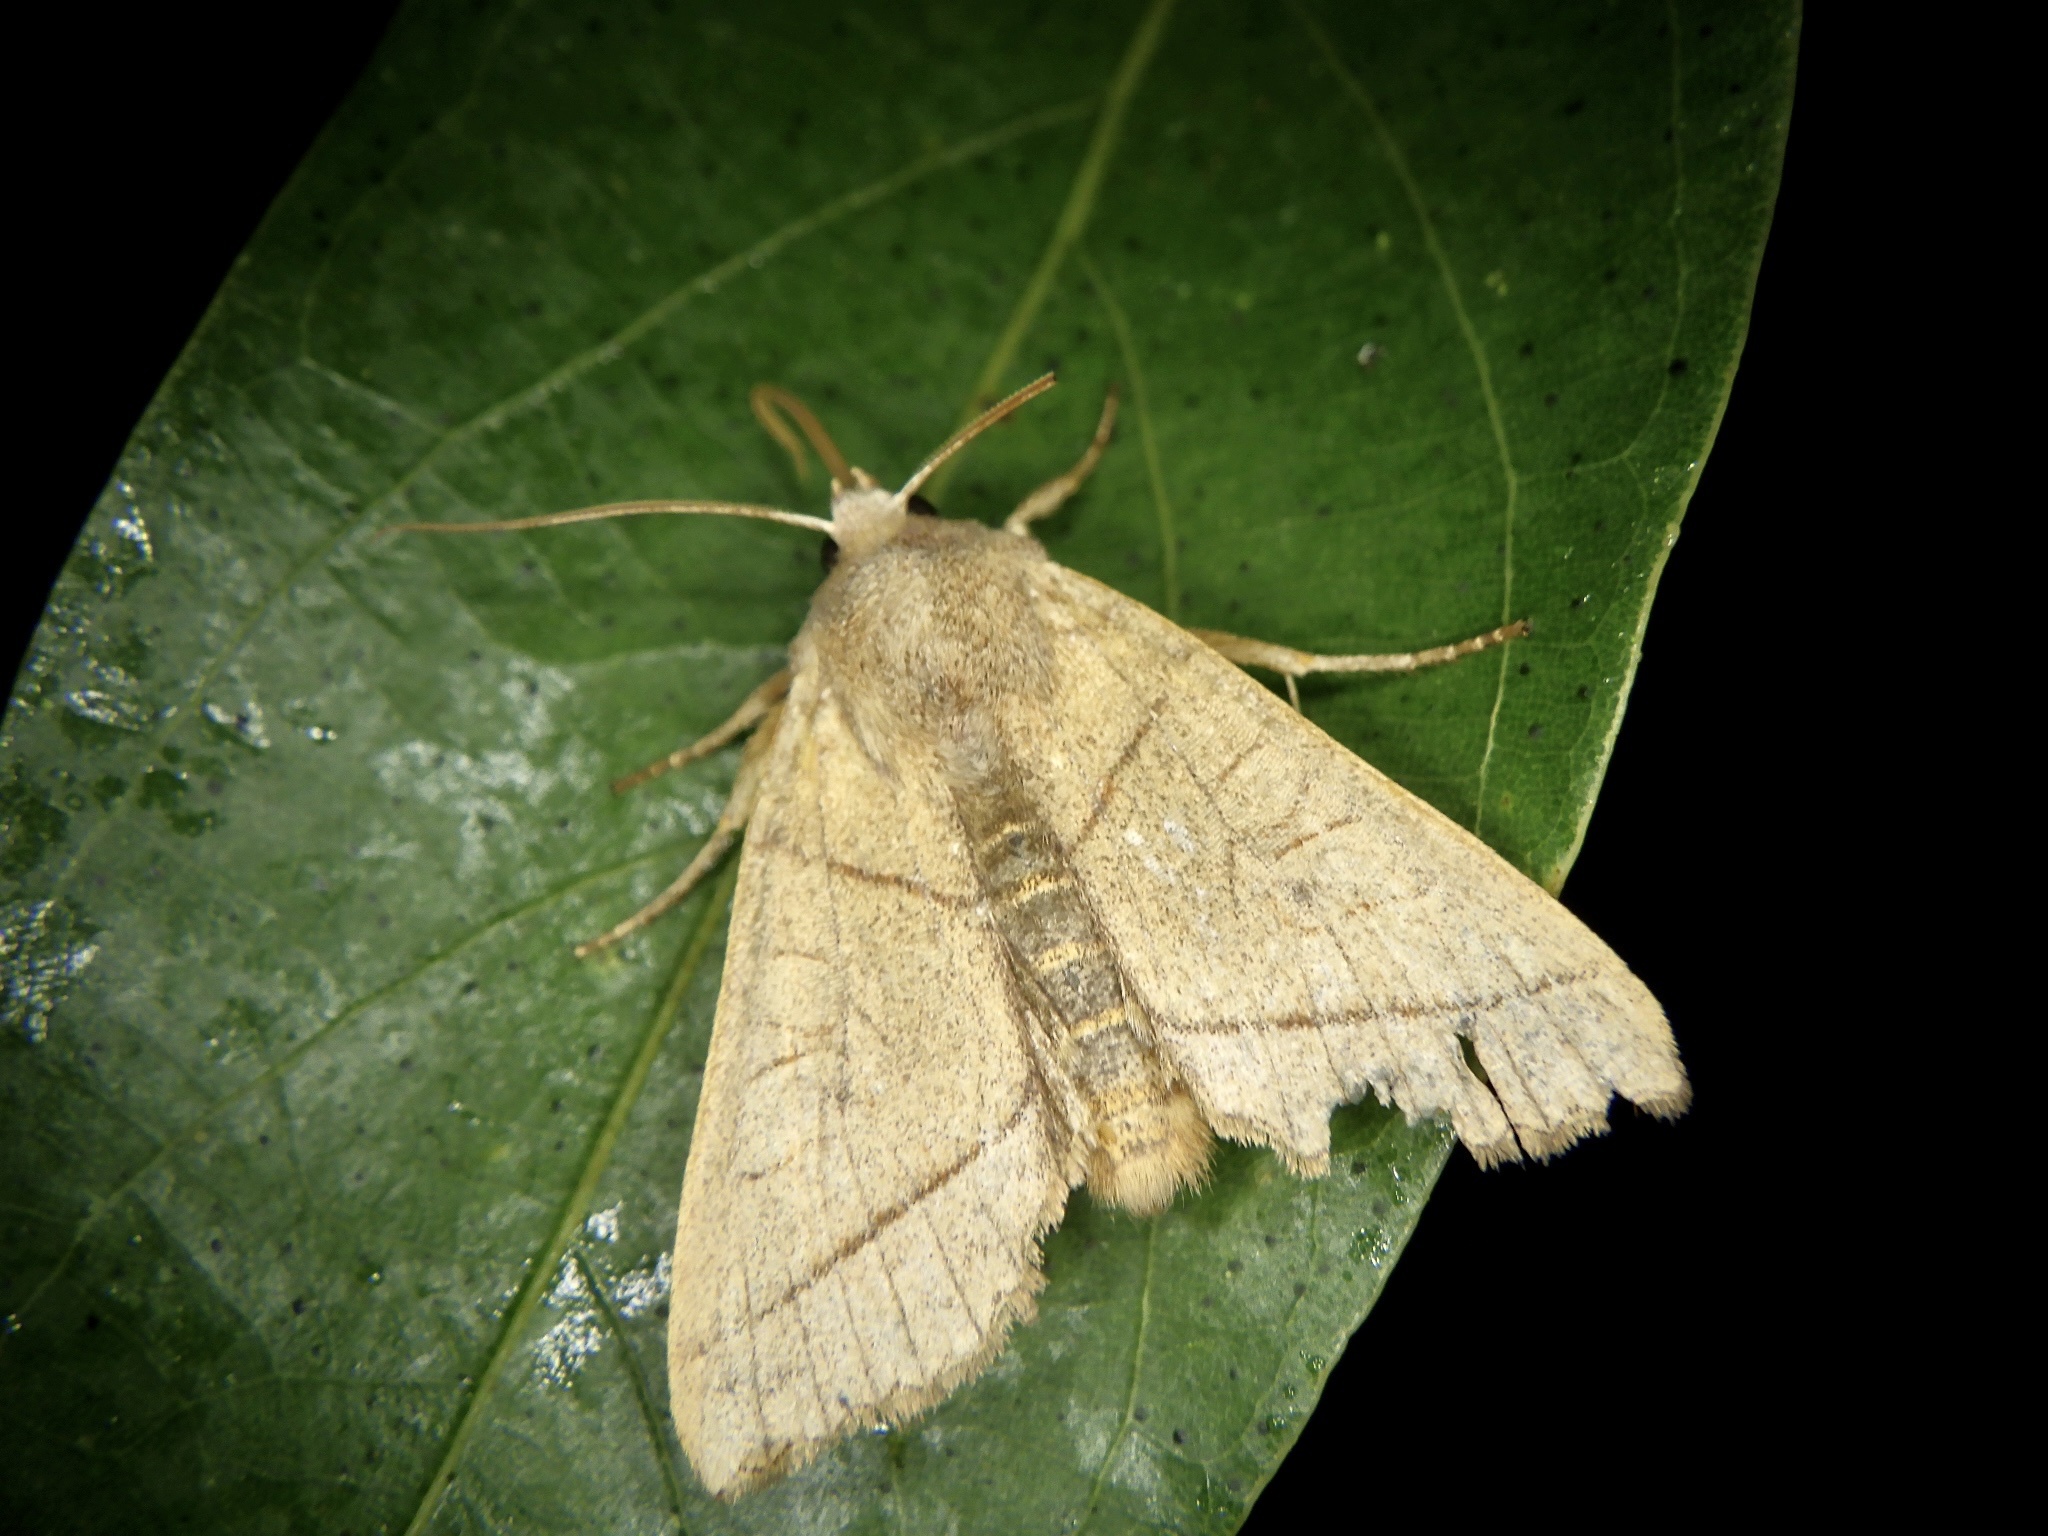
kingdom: Animalia
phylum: Arthropoda
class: Insecta
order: Lepidoptera
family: Noctuidae
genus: Telorta
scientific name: Telorta divergens
